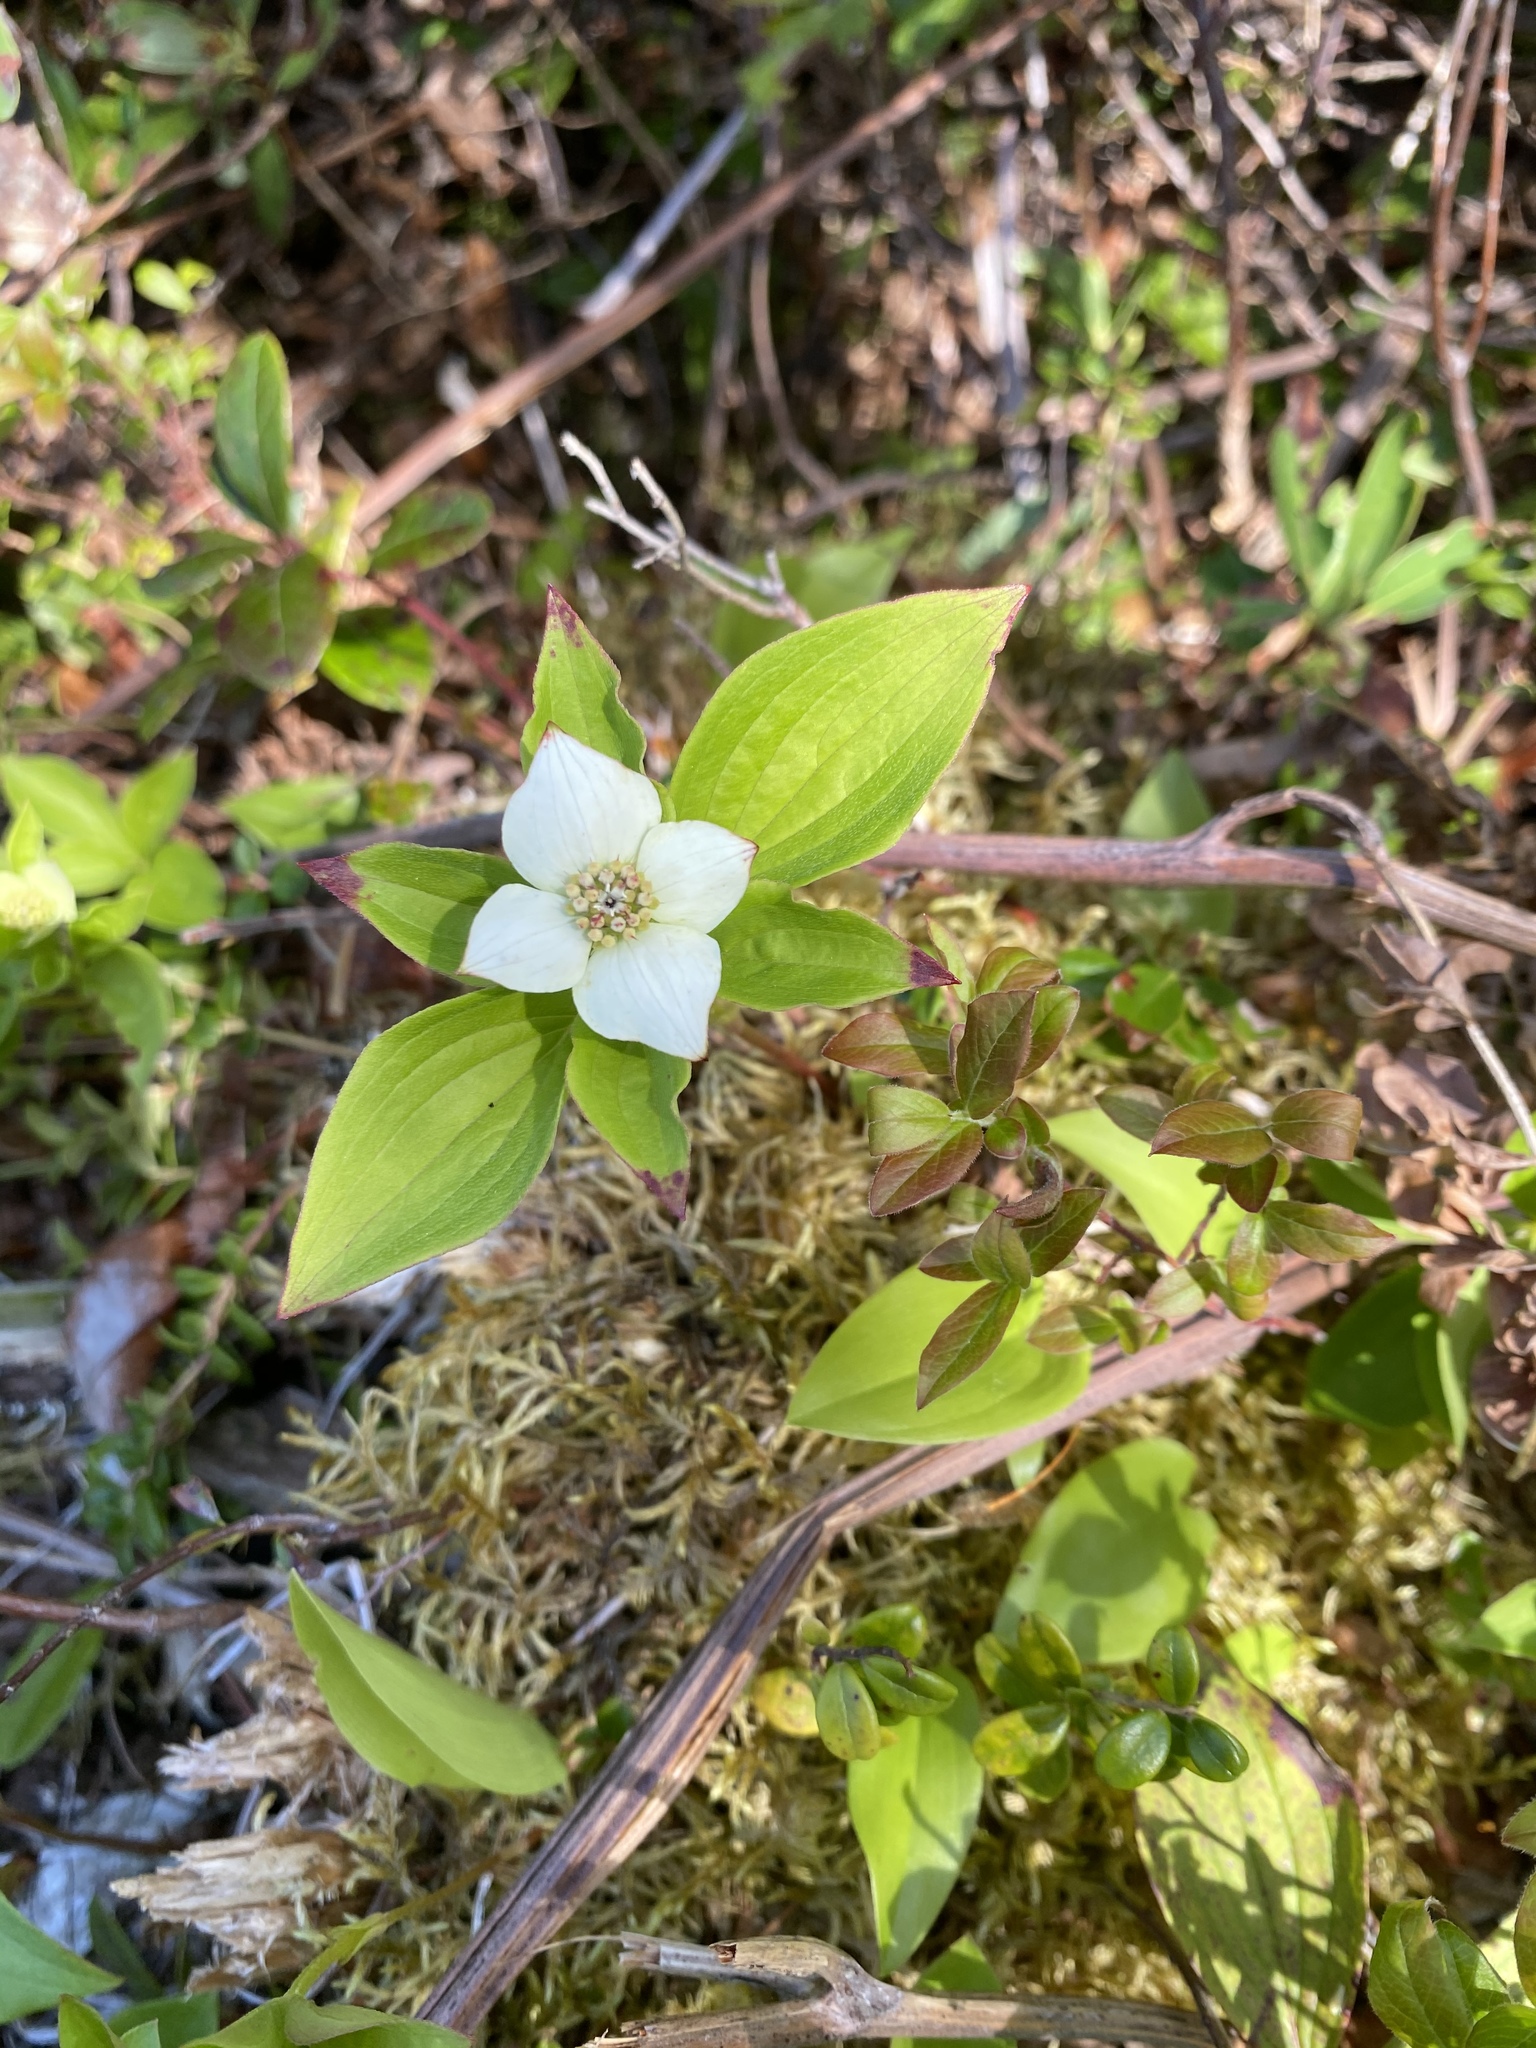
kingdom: Plantae
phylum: Tracheophyta
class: Magnoliopsida
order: Cornales
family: Cornaceae
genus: Cornus
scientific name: Cornus canadensis
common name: Creeping dogwood
